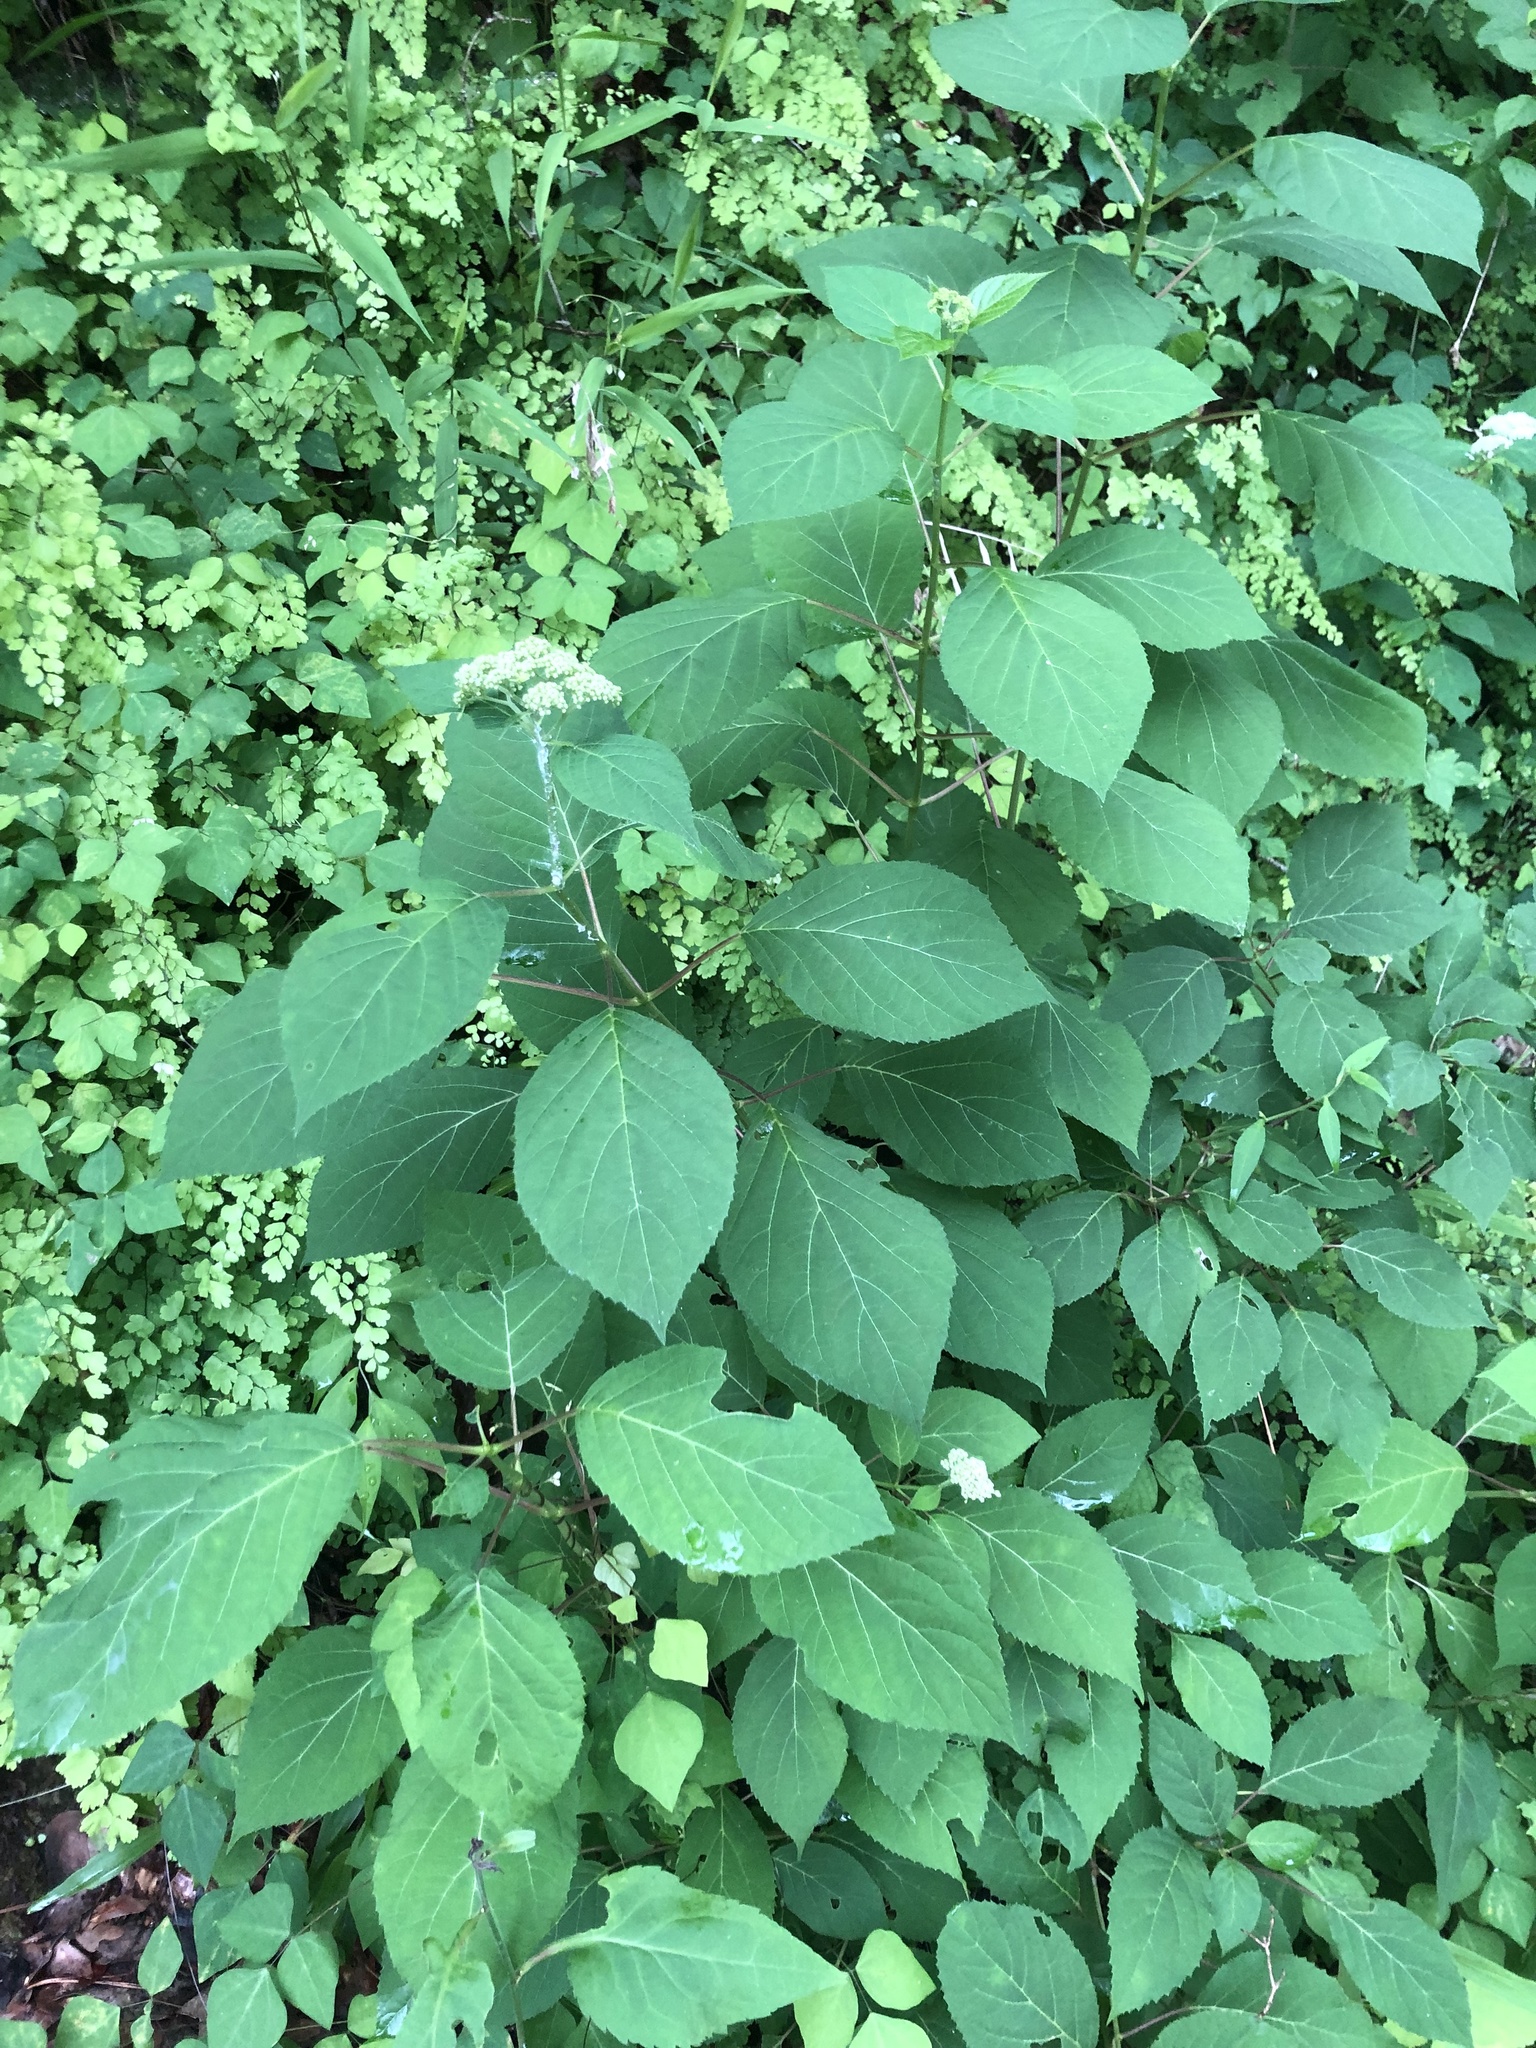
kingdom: Plantae
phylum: Tracheophyta
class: Magnoliopsida
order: Cornales
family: Hydrangeaceae
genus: Hydrangea
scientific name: Hydrangea arborescens
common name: Sevenbark
